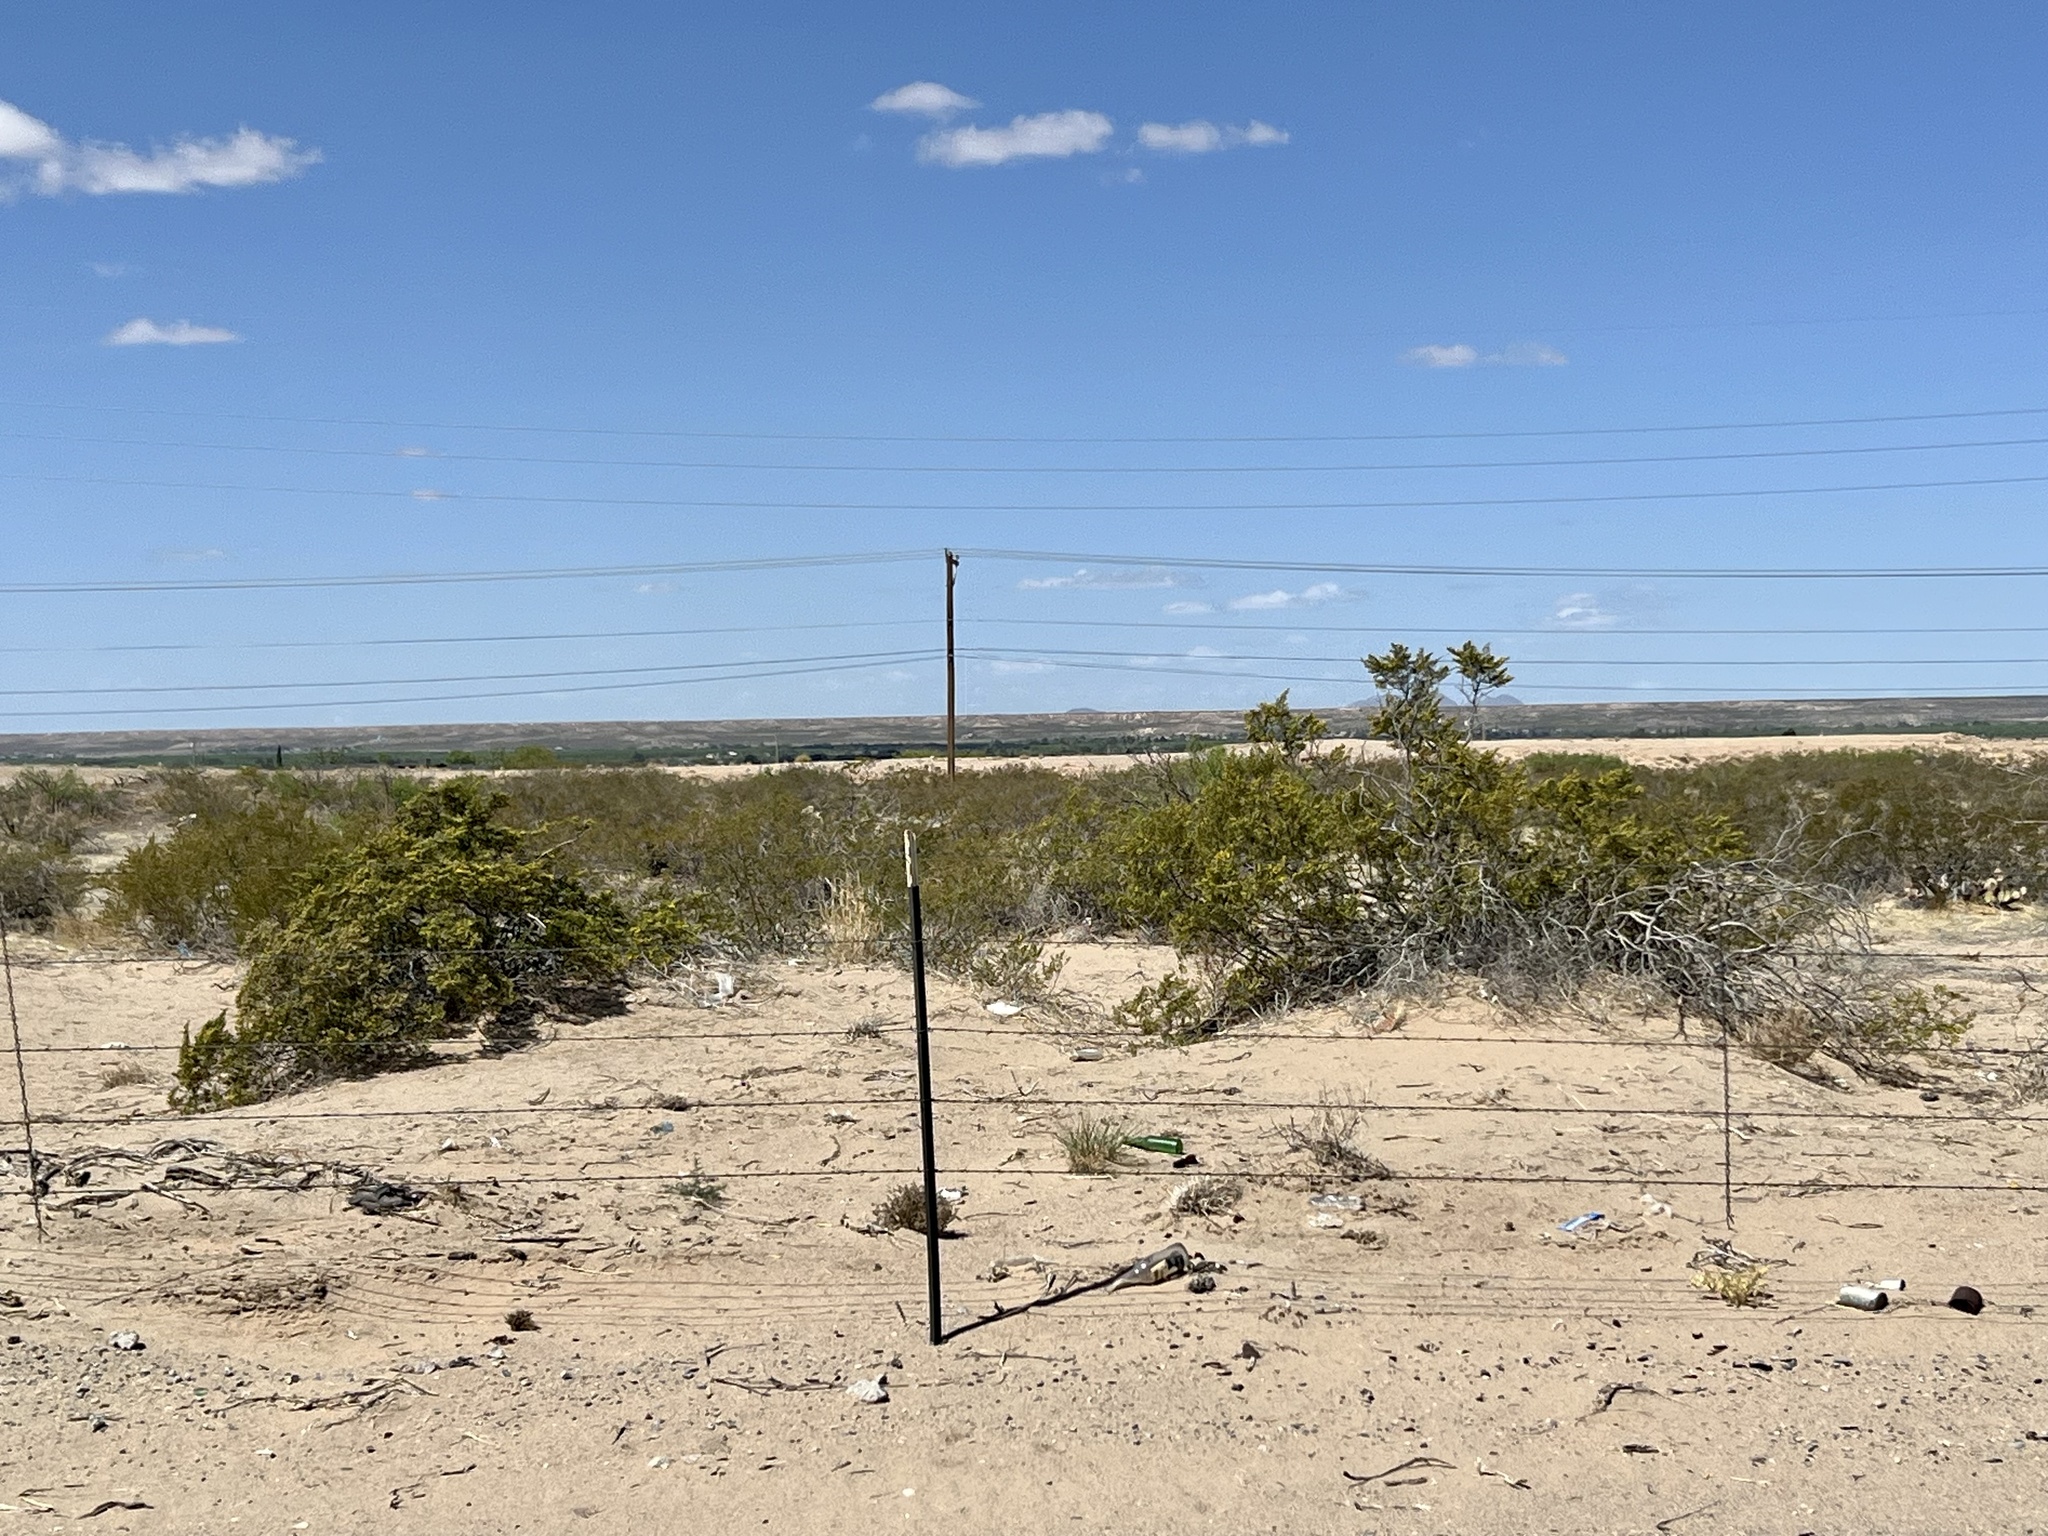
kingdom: Plantae
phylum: Tracheophyta
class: Magnoliopsida
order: Zygophyllales
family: Zygophyllaceae
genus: Larrea
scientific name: Larrea tridentata
